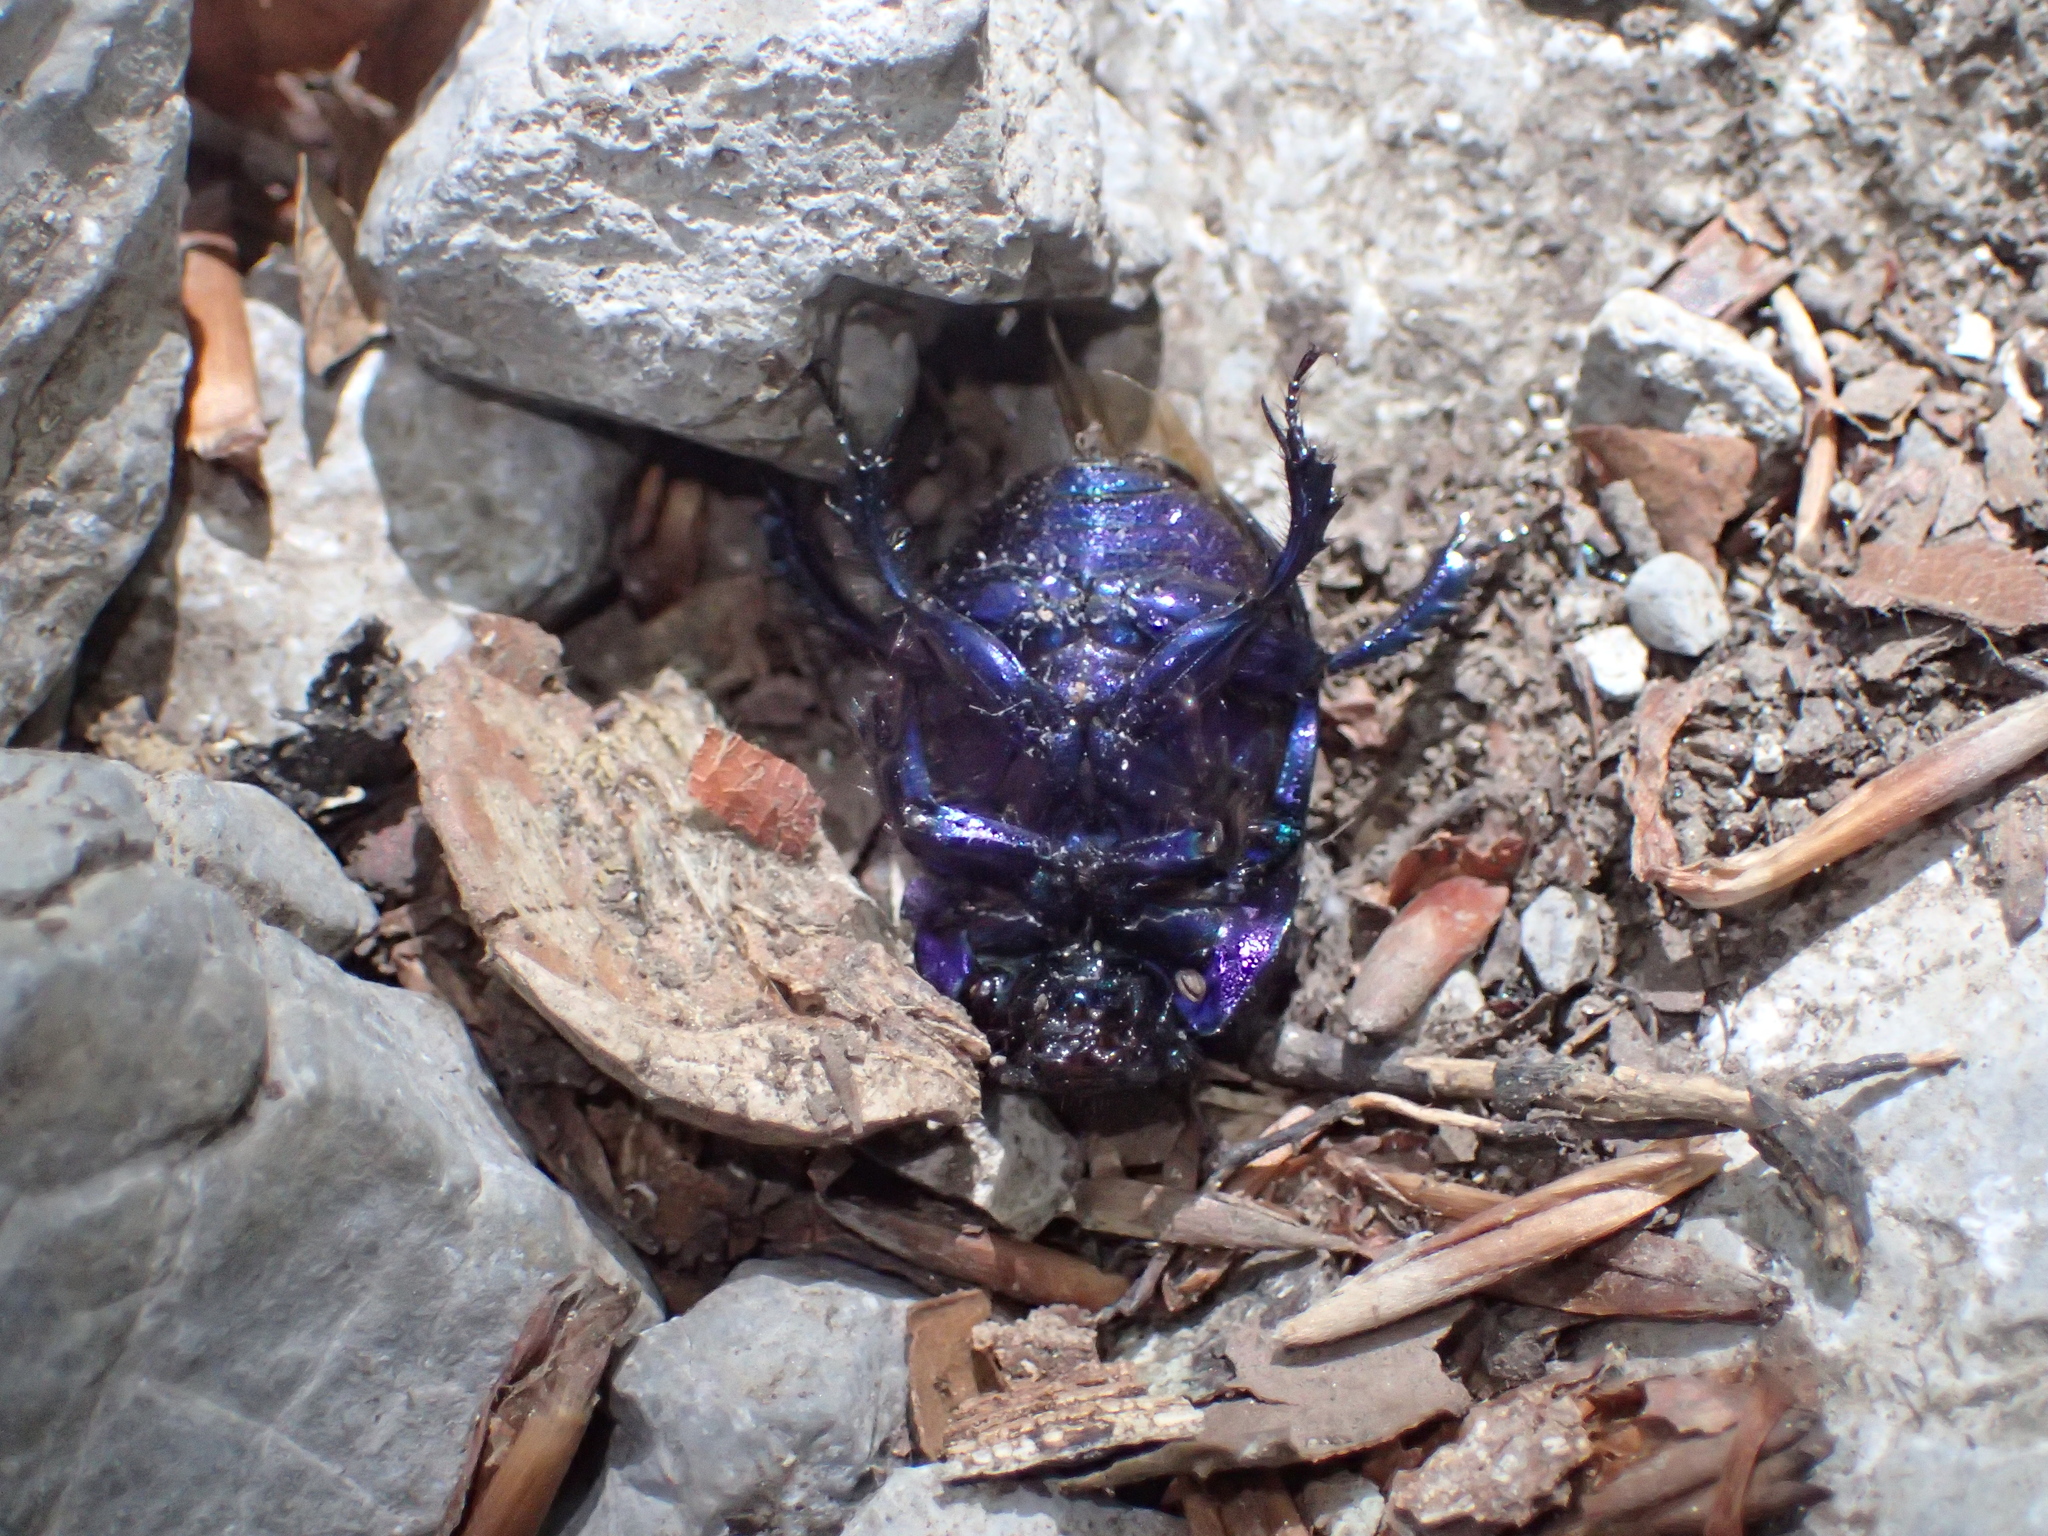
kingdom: Animalia
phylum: Arthropoda
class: Insecta
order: Coleoptera
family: Geotrupidae
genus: Anoplotrupes
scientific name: Anoplotrupes stercorosus
